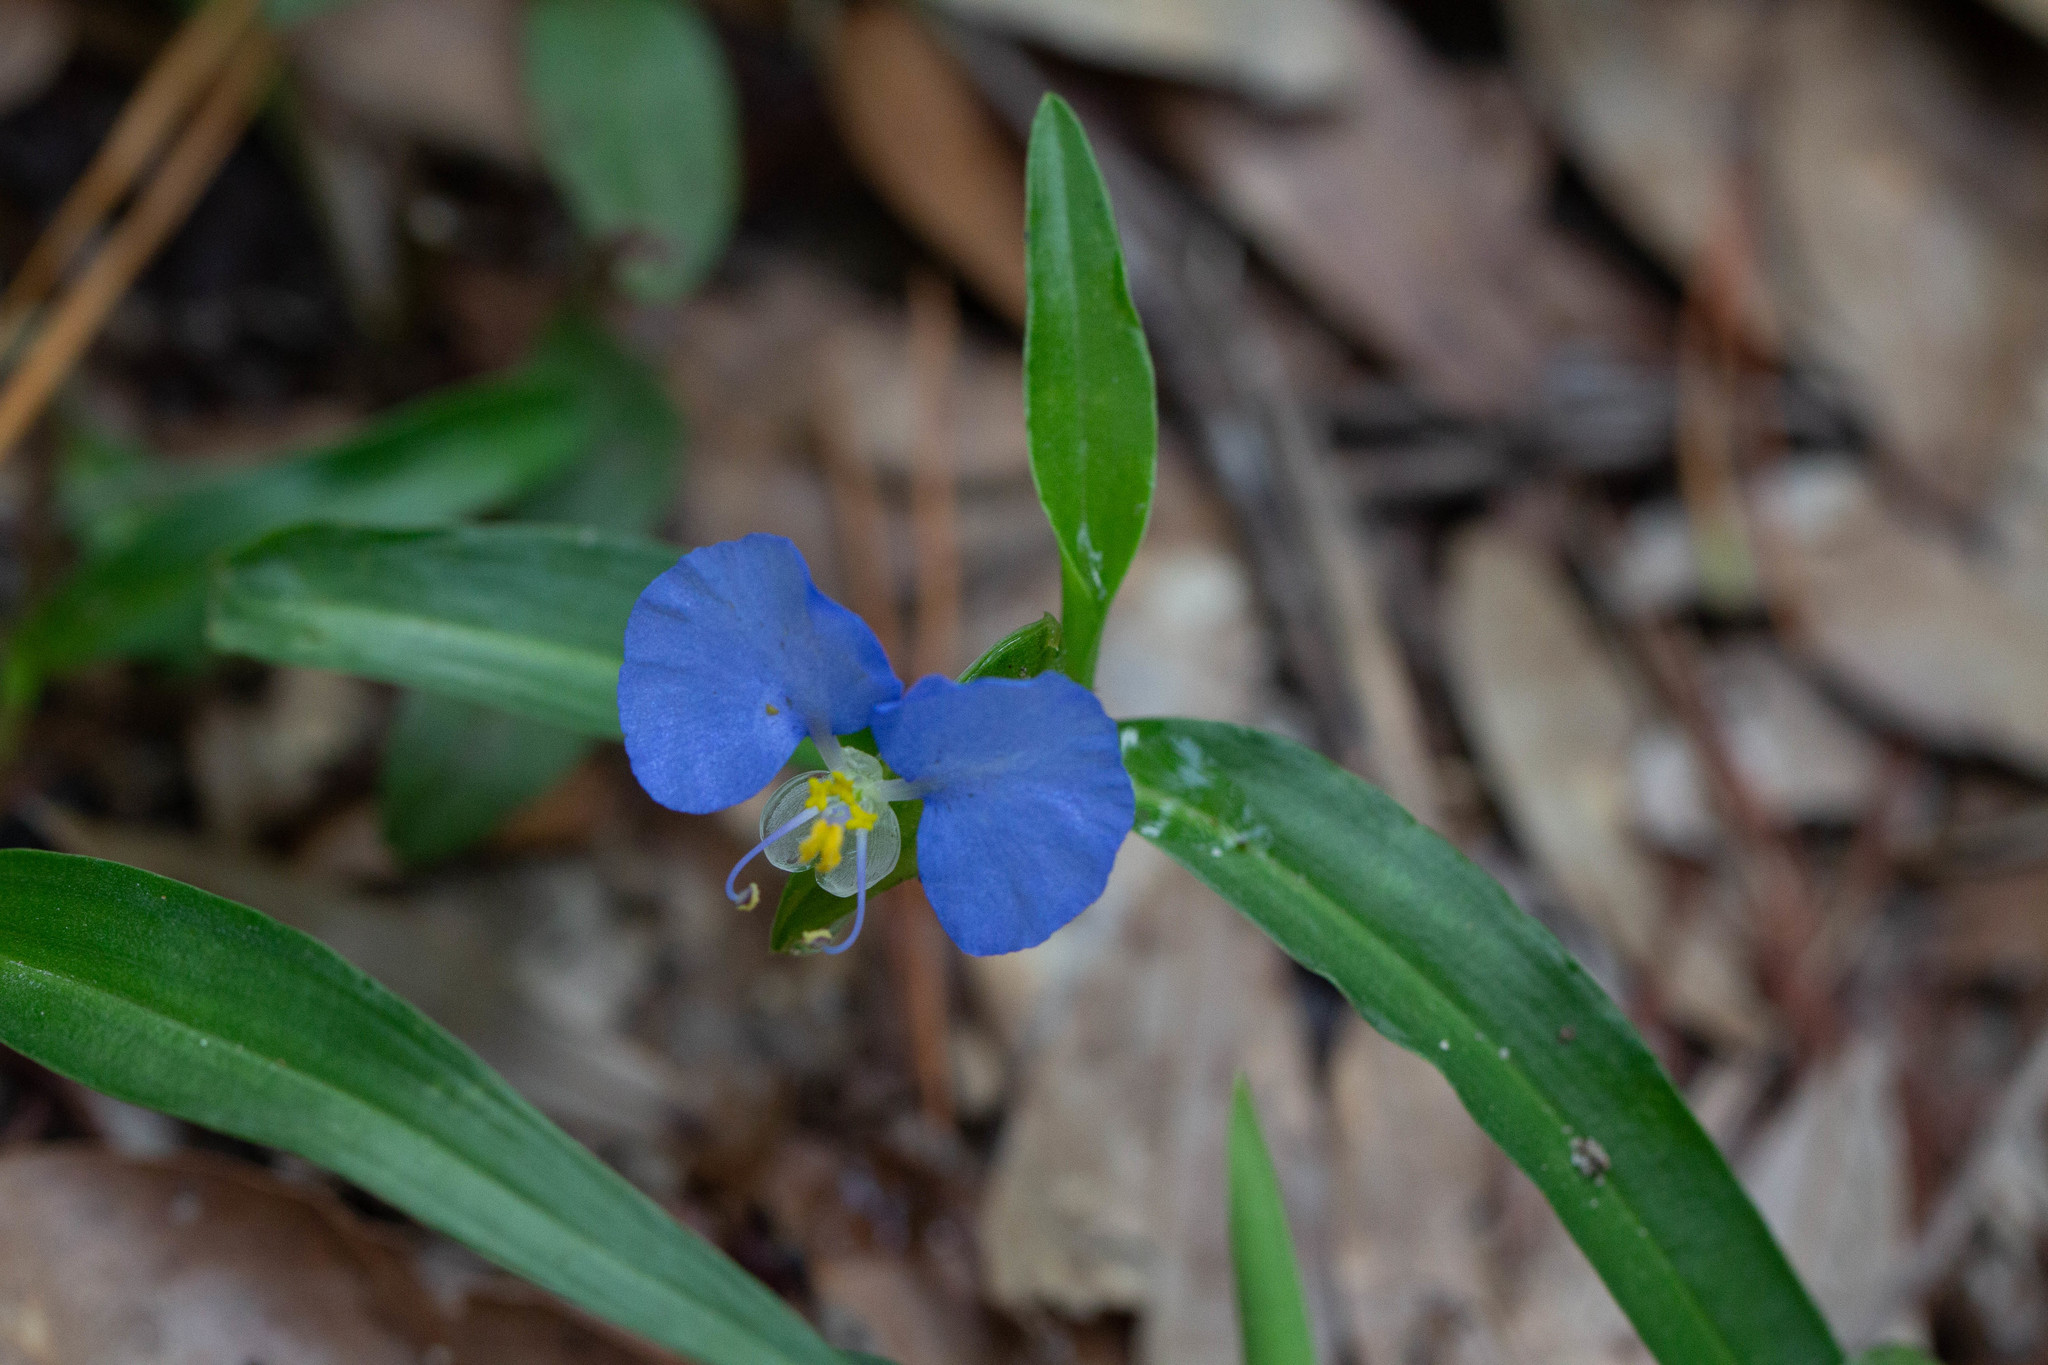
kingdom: Plantae
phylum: Tracheophyta
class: Liliopsida
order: Commelinales
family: Commelinaceae
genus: Commelina
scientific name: Commelina erecta
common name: Blousel blommetjie
